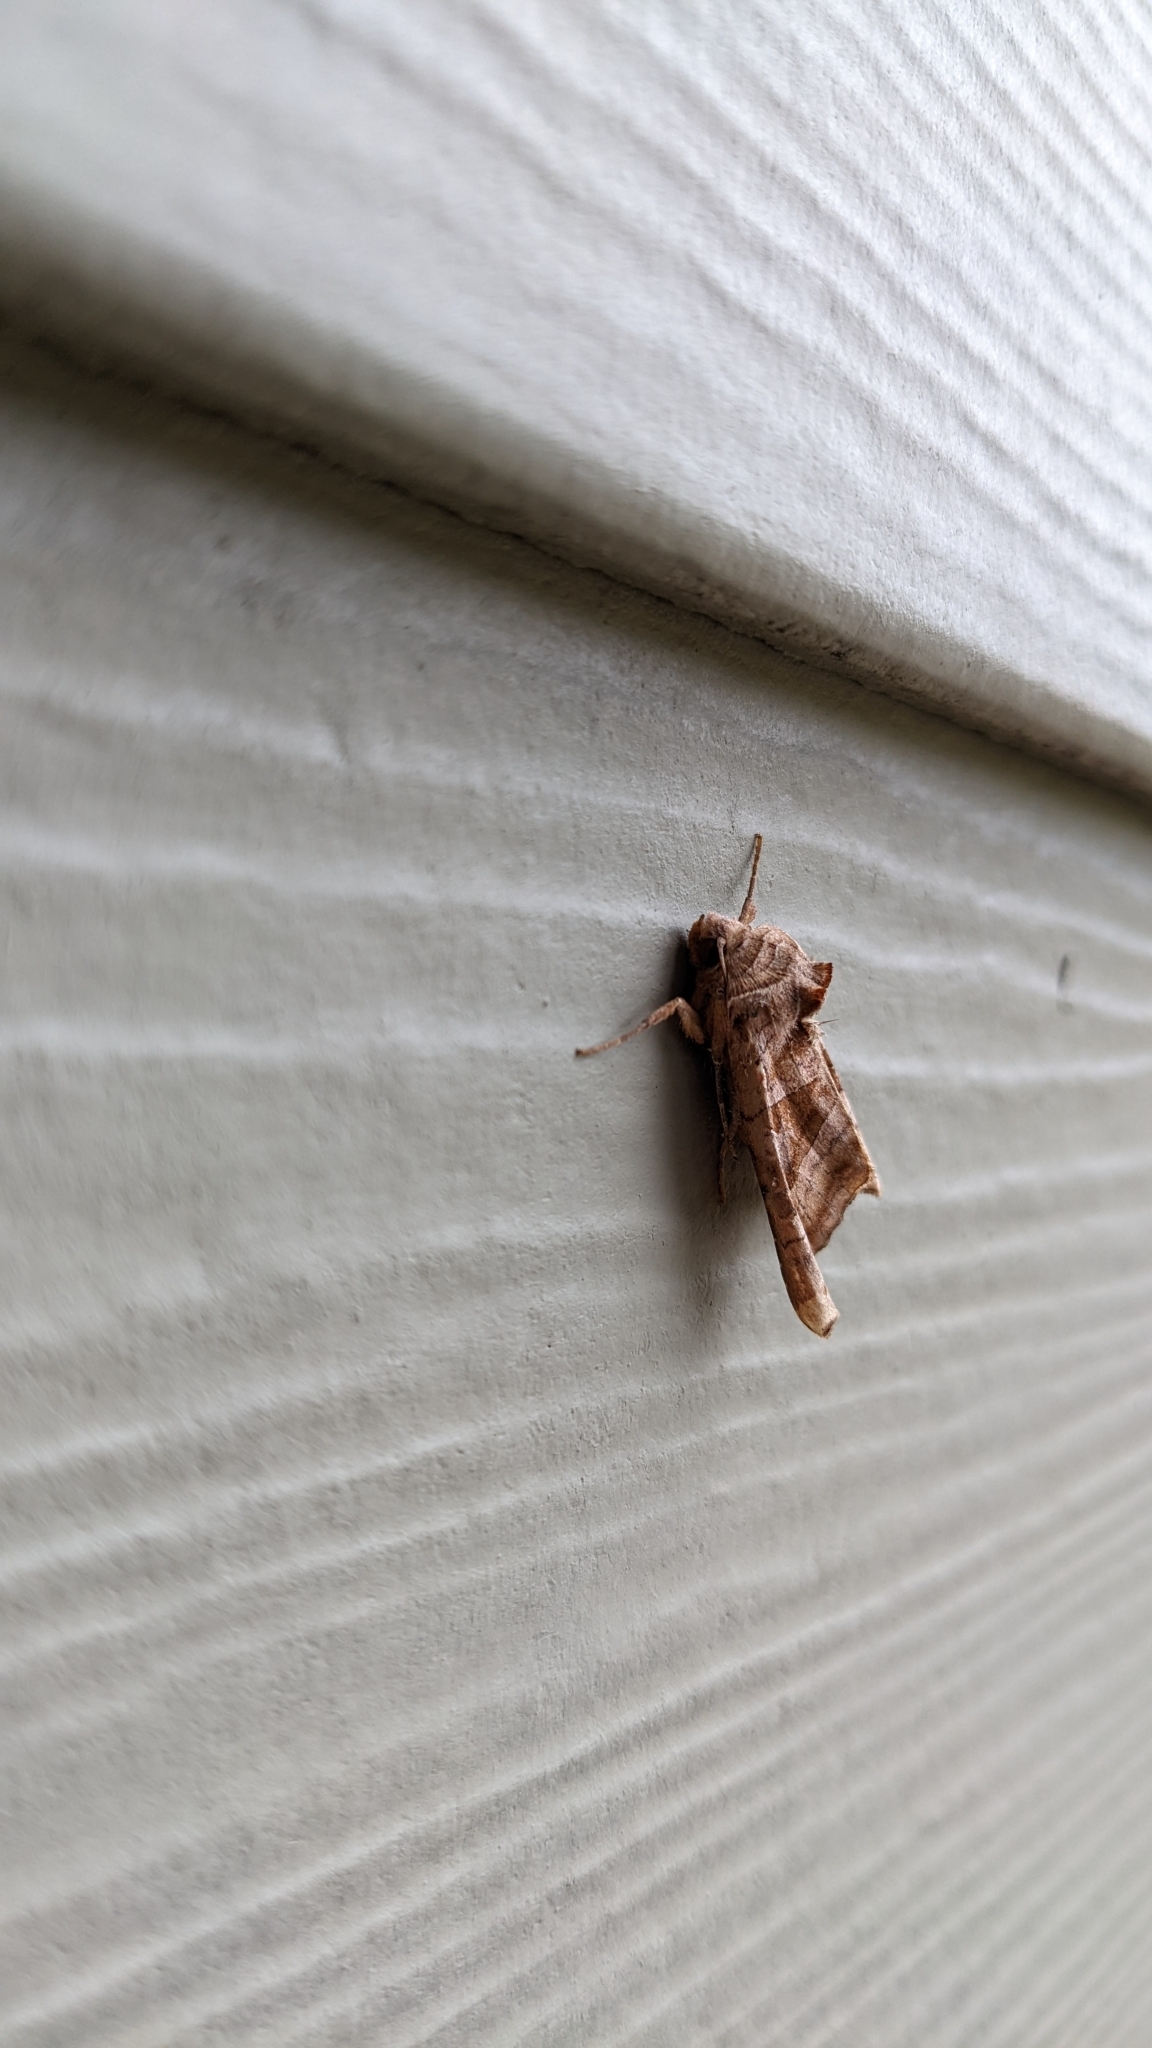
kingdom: Animalia
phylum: Arthropoda
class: Insecta
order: Lepidoptera
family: Noctuidae
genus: Phlogophora
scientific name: Phlogophora periculosa
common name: Brown angle shades
